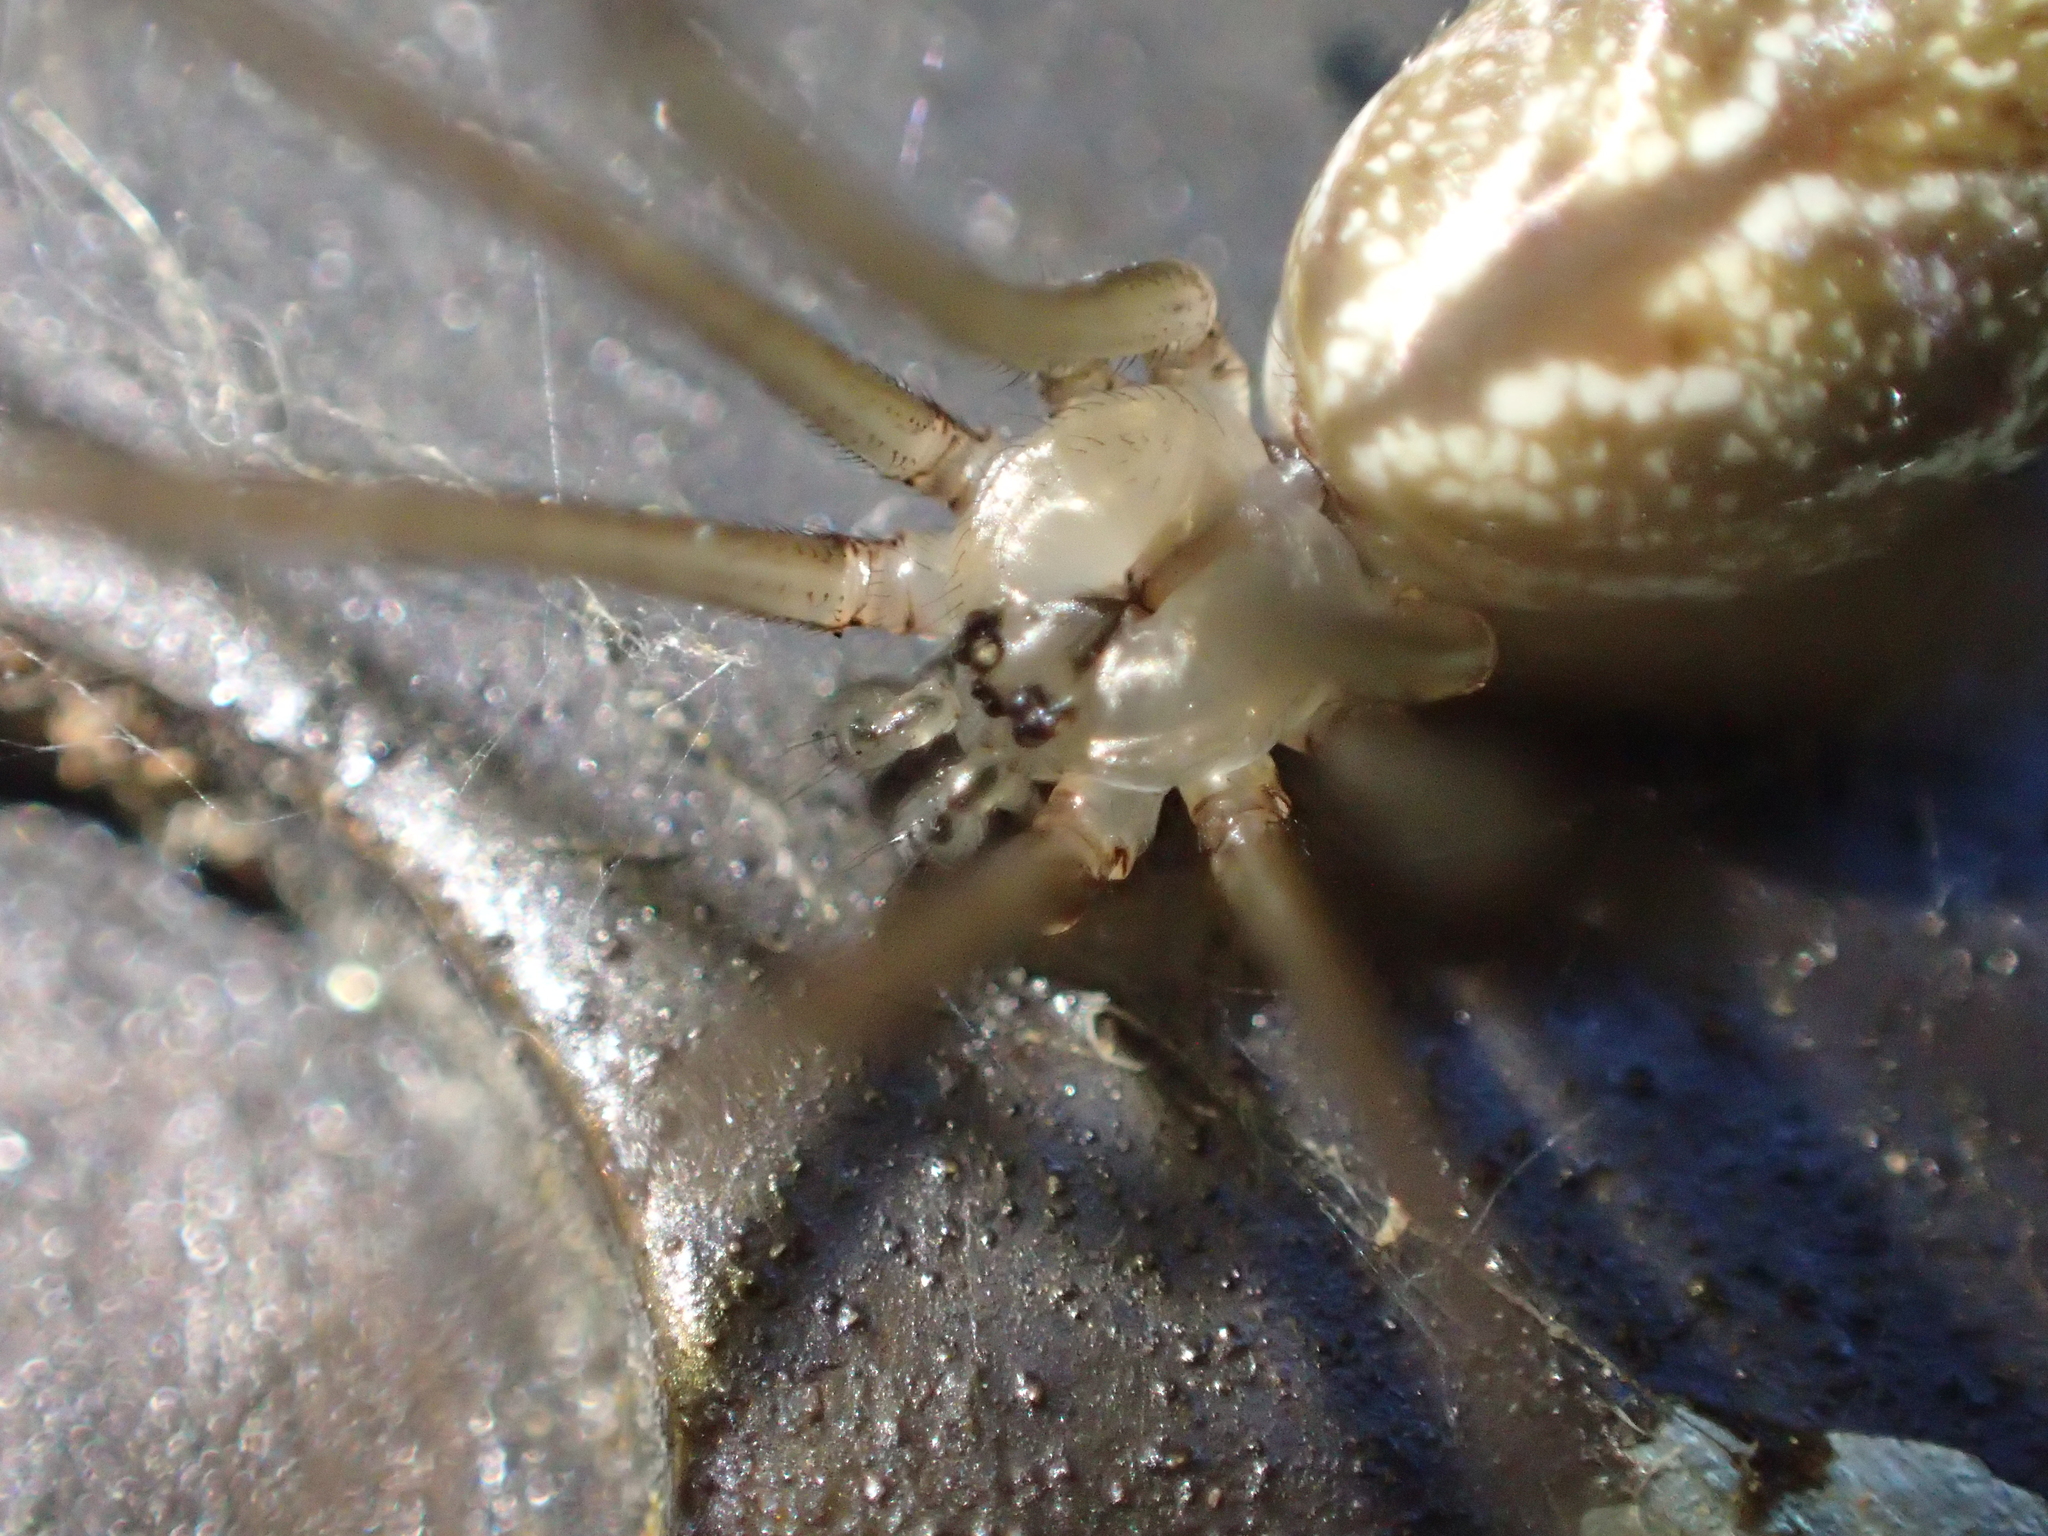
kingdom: Animalia
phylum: Arthropoda
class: Arachnida
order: Araneae
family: Pholcidae
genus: Holocnemus
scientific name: Holocnemus pluchei
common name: Marbled cellar spider
